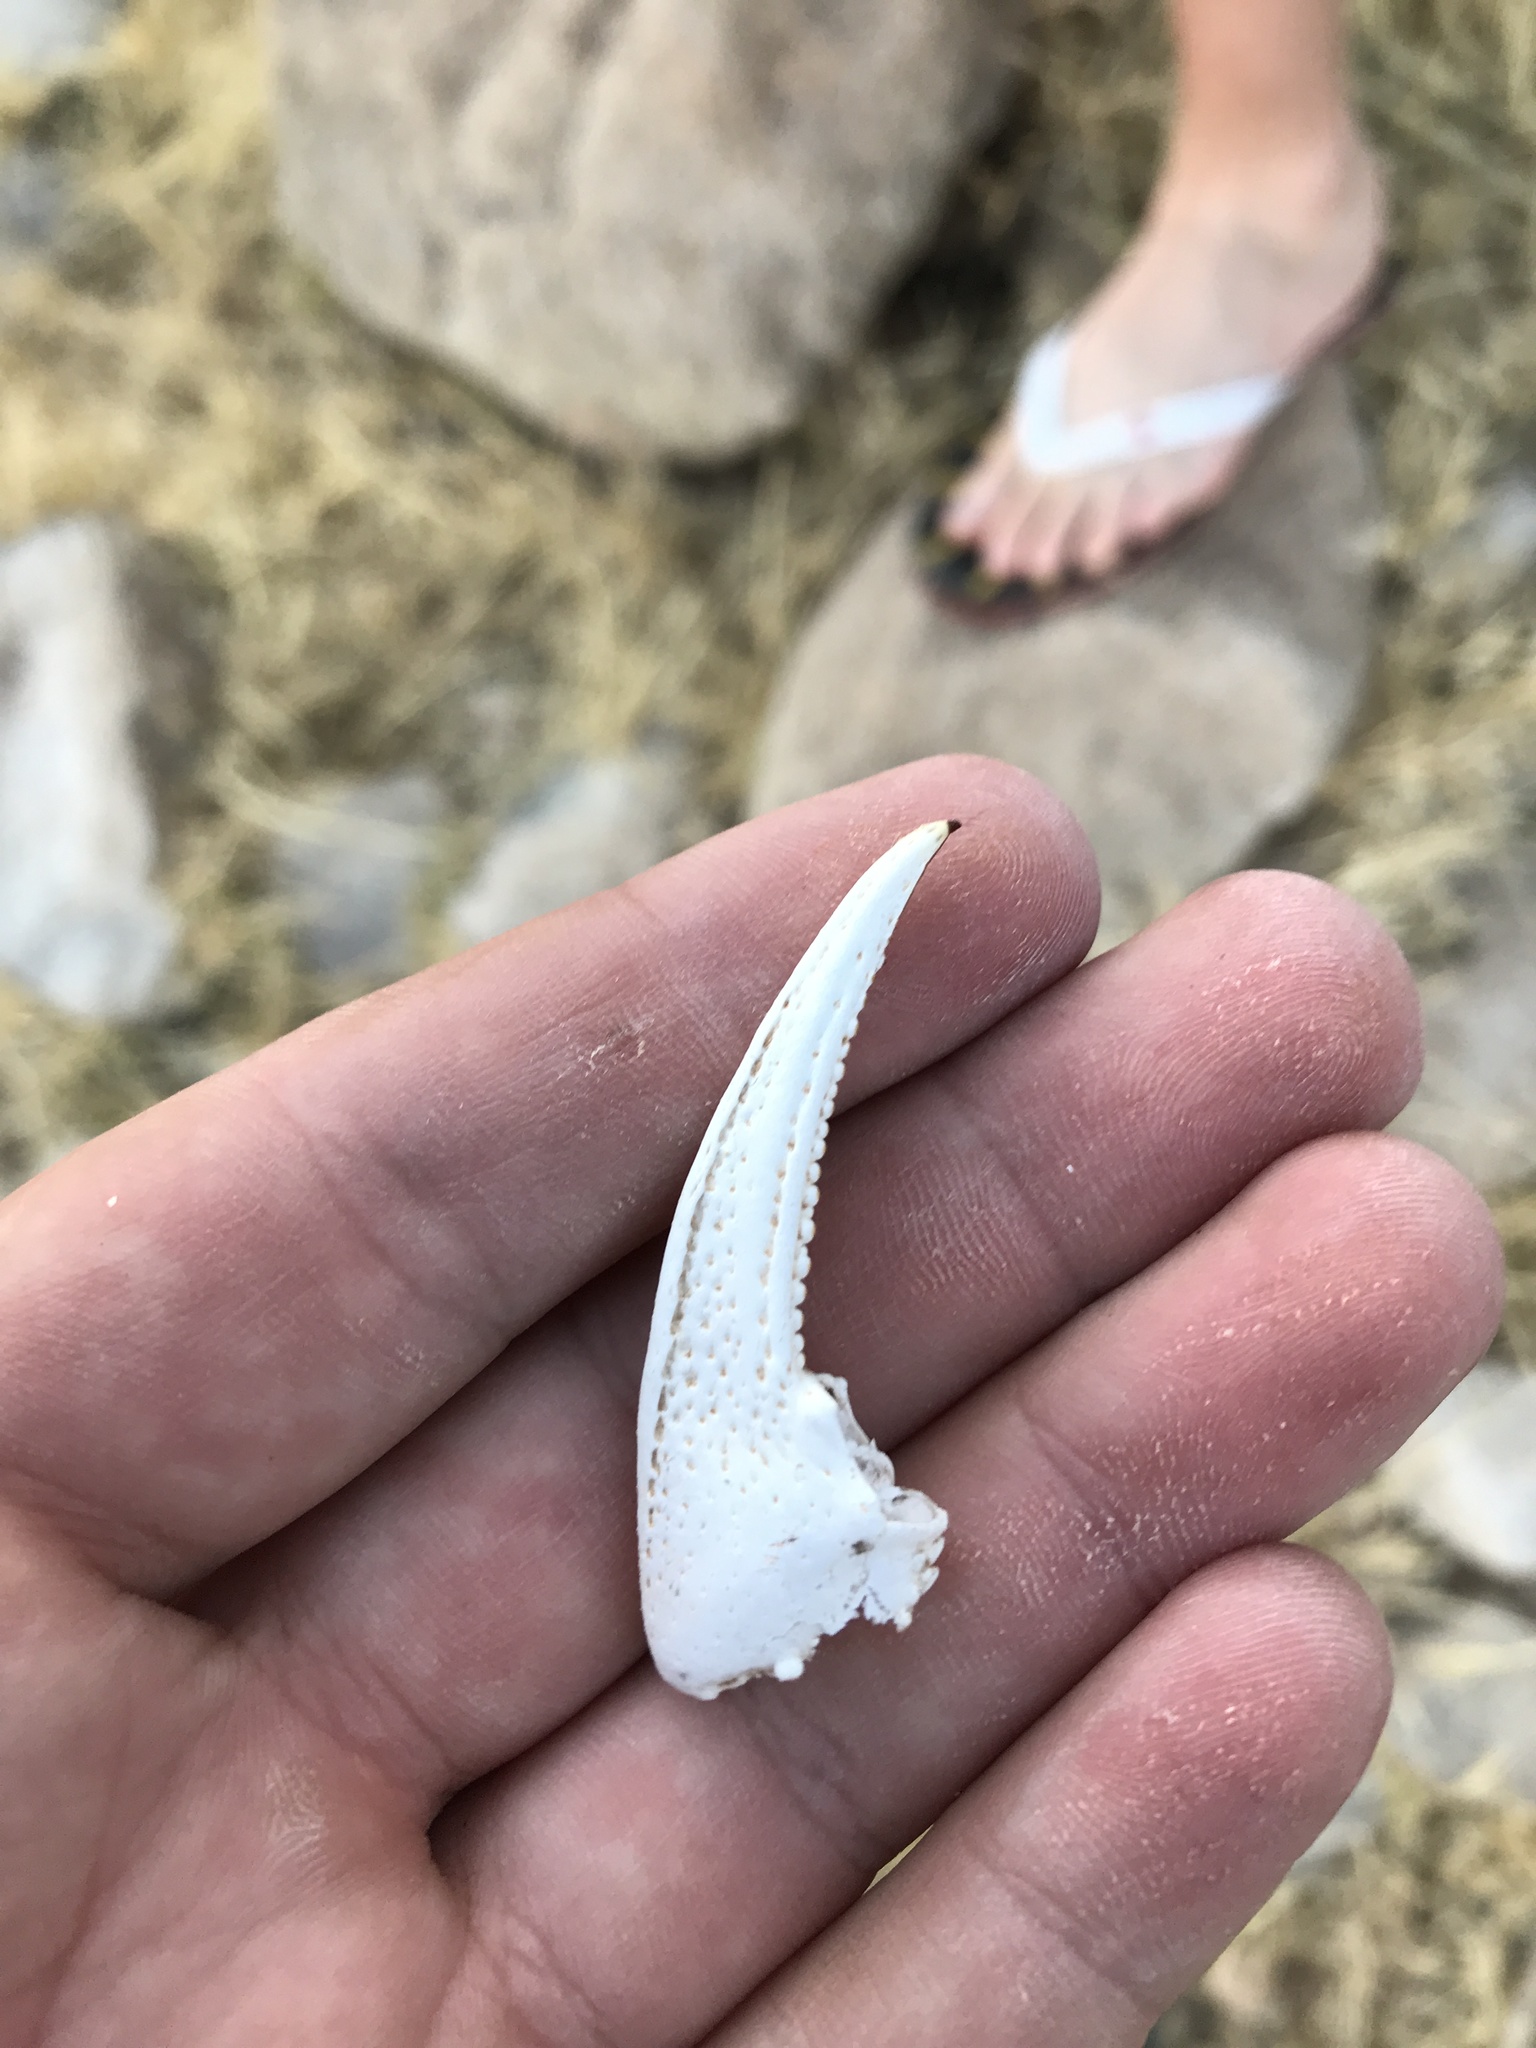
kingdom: Animalia
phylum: Arthropoda
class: Malacostraca
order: Decapoda
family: Cambaridae
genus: Faxonius
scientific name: Faxonius virilis
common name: Virile crayfish
